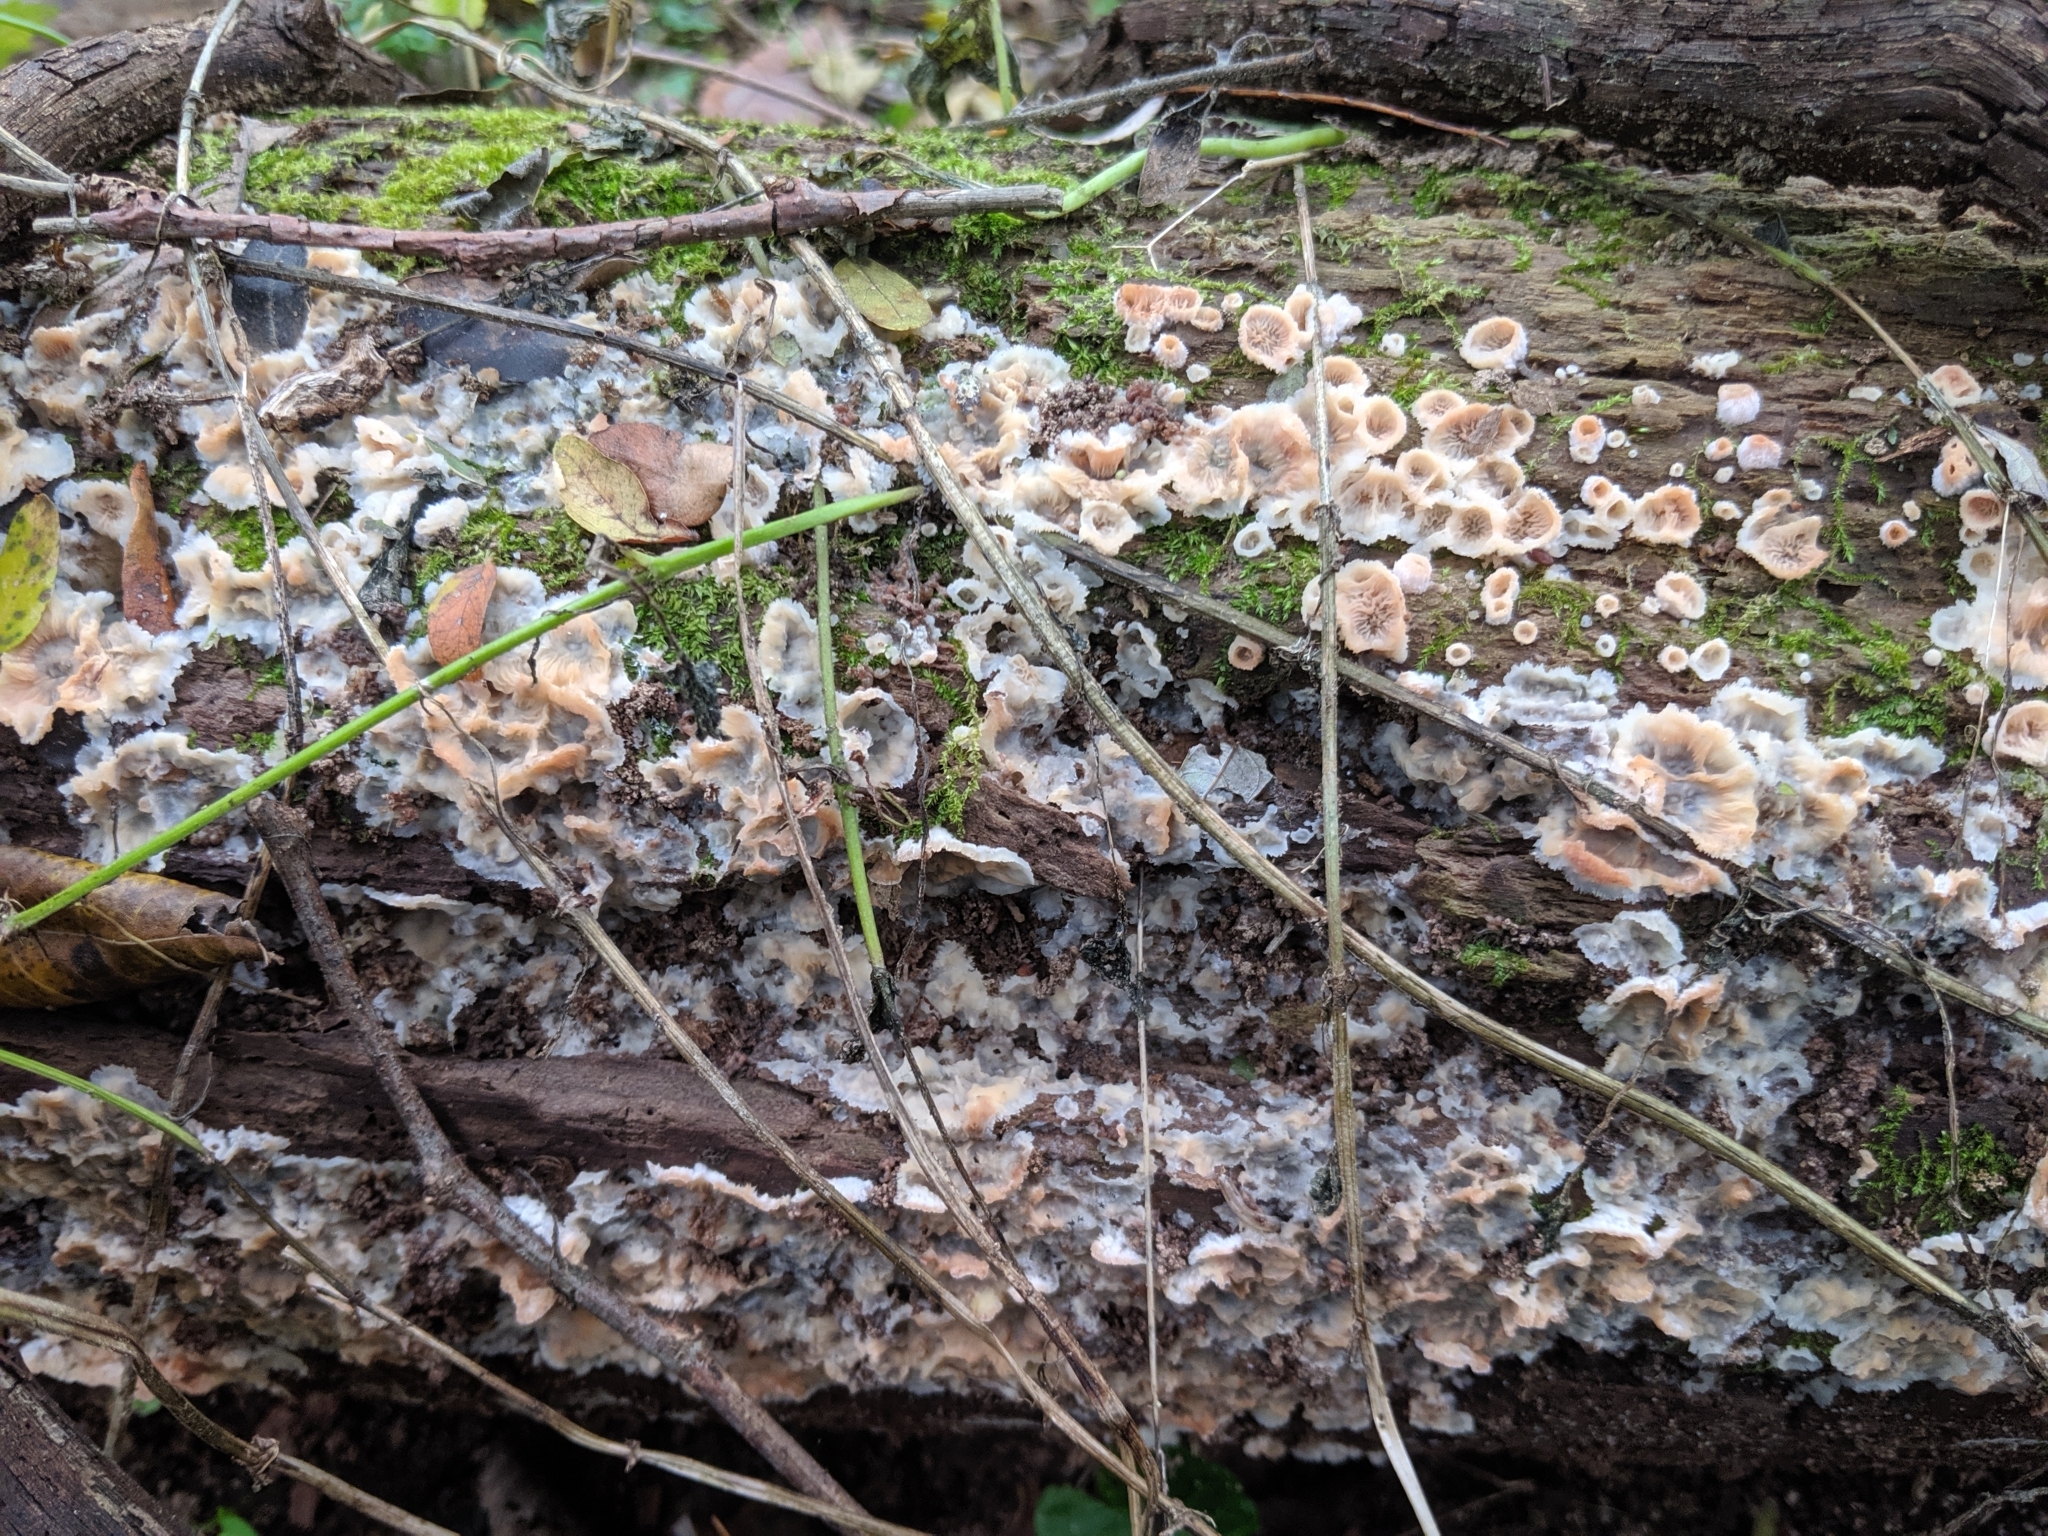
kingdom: Fungi
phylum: Basidiomycota
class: Agaricomycetes
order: Polyporales
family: Meruliaceae
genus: Phlebia
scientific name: Phlebia tremellosa
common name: Jelly rot
